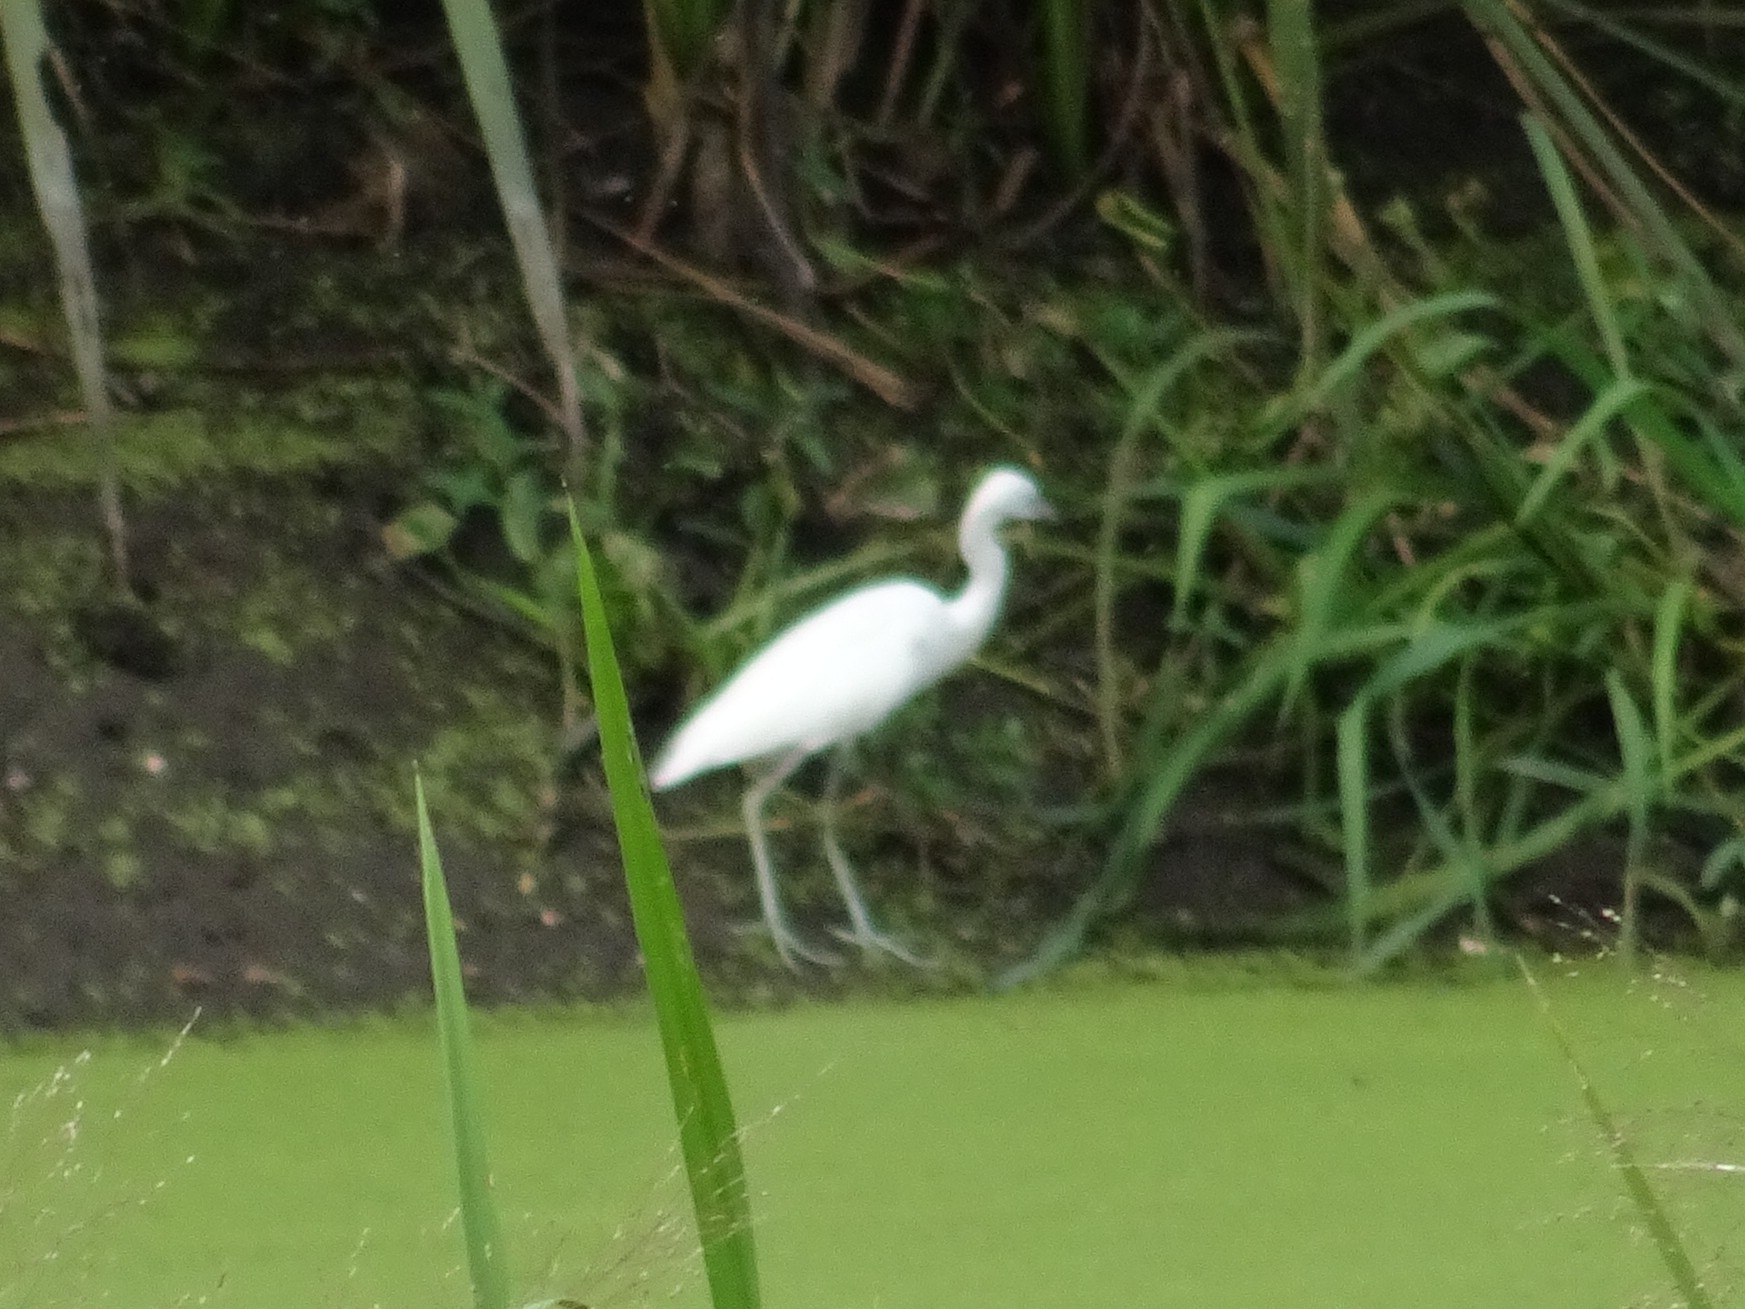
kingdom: Animalia
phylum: Chordata
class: Aves
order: Pelecaniformes
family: Ardeidae
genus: Egretta
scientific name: Egretta caerulea
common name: Little blue heron
